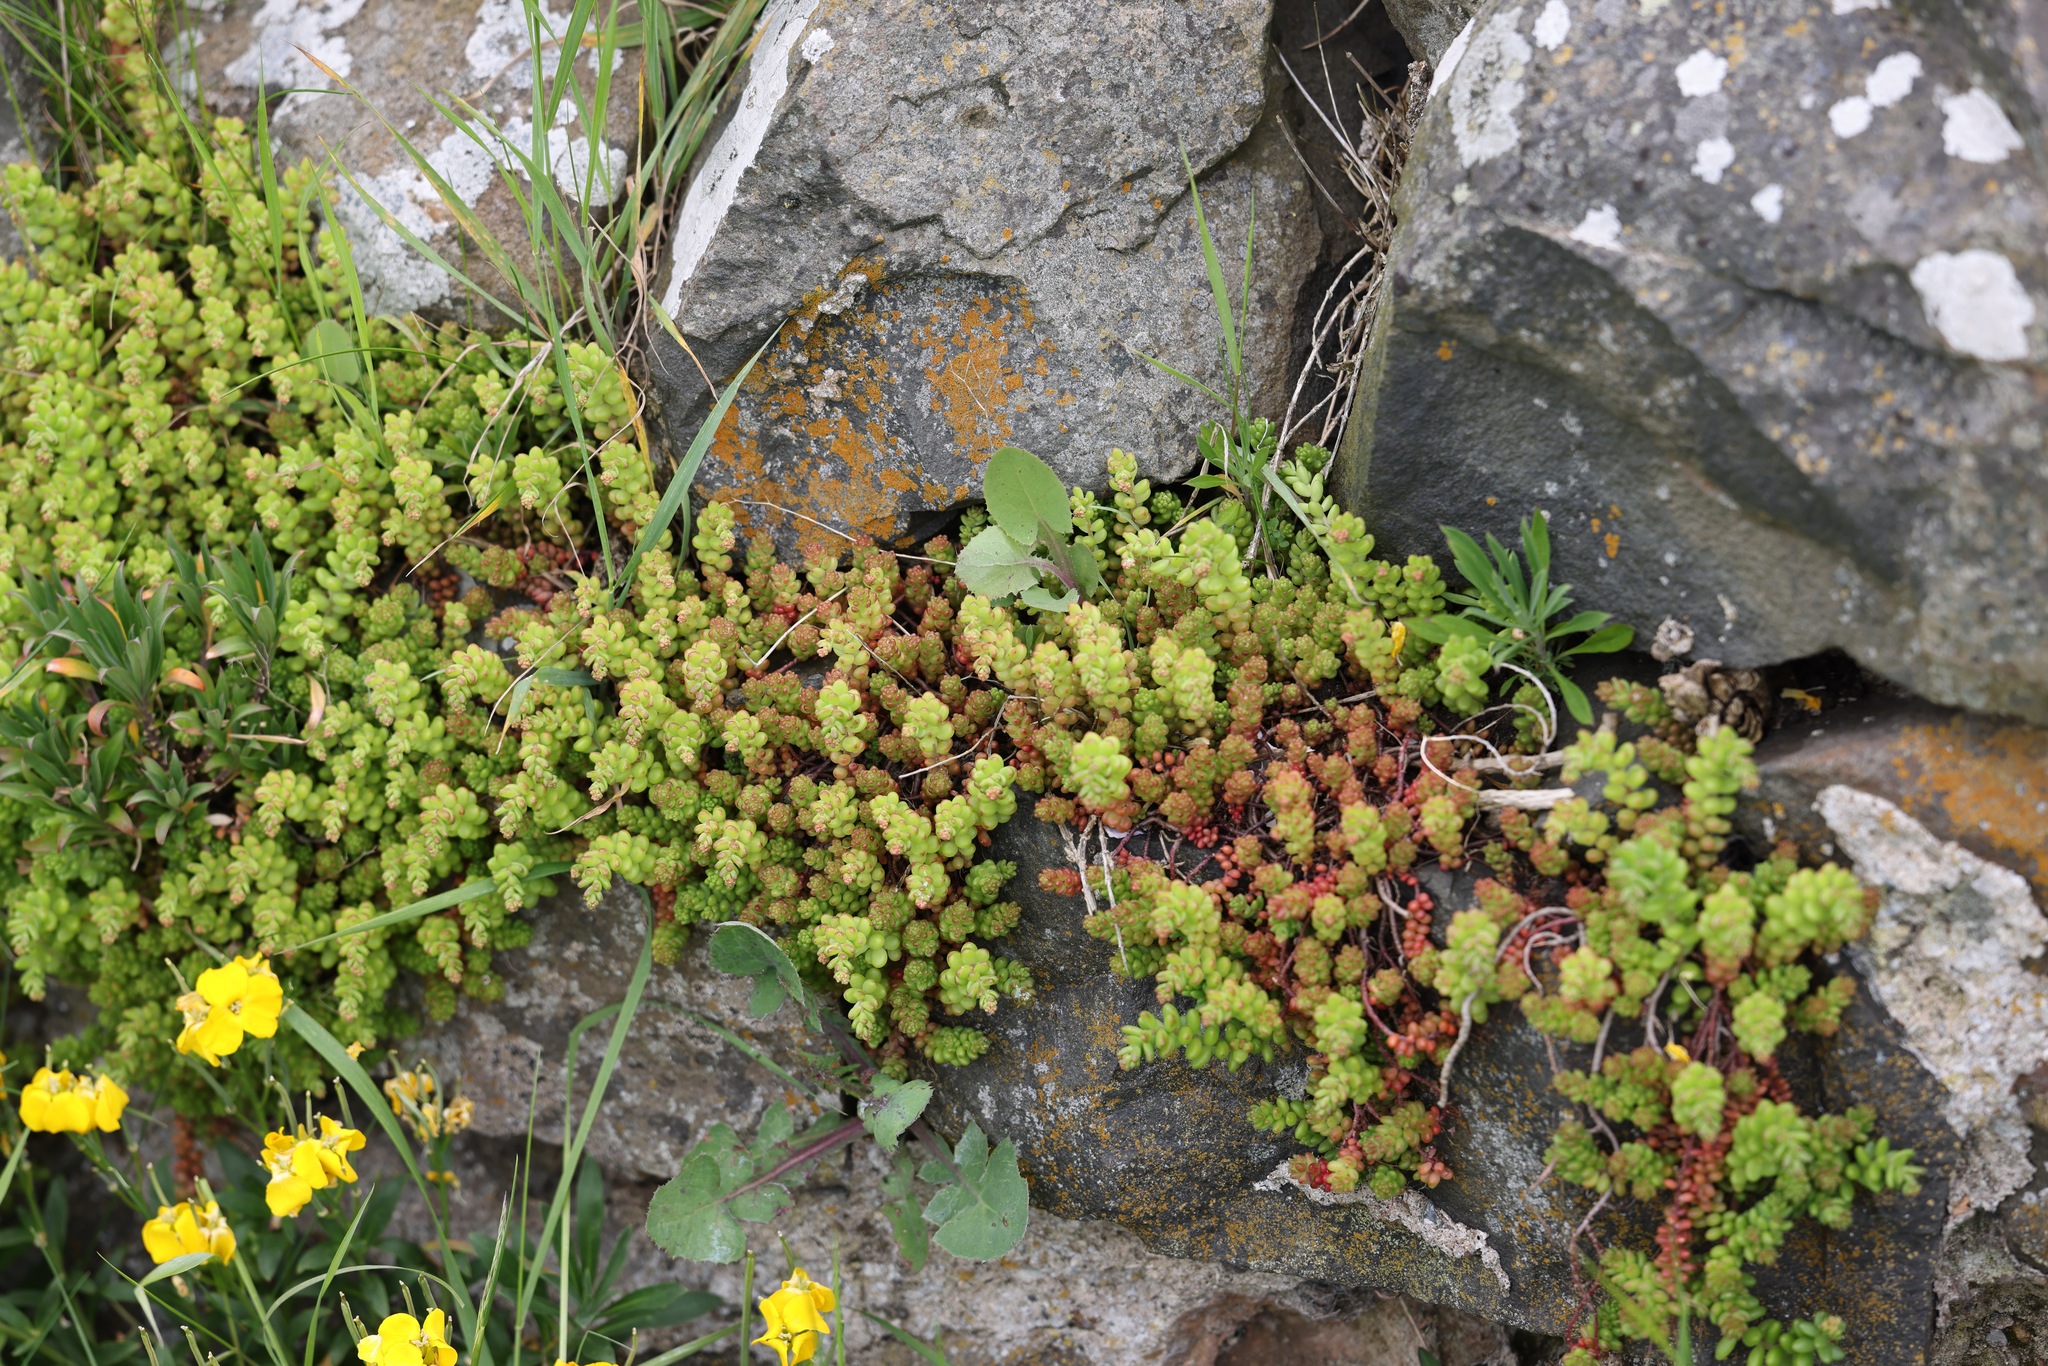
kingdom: Plantae
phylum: Tracheophyta
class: Magnoliopsida
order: Saxifragales
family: Crassulaceae
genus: Sedum
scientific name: Sedum album
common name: White stonecrop
